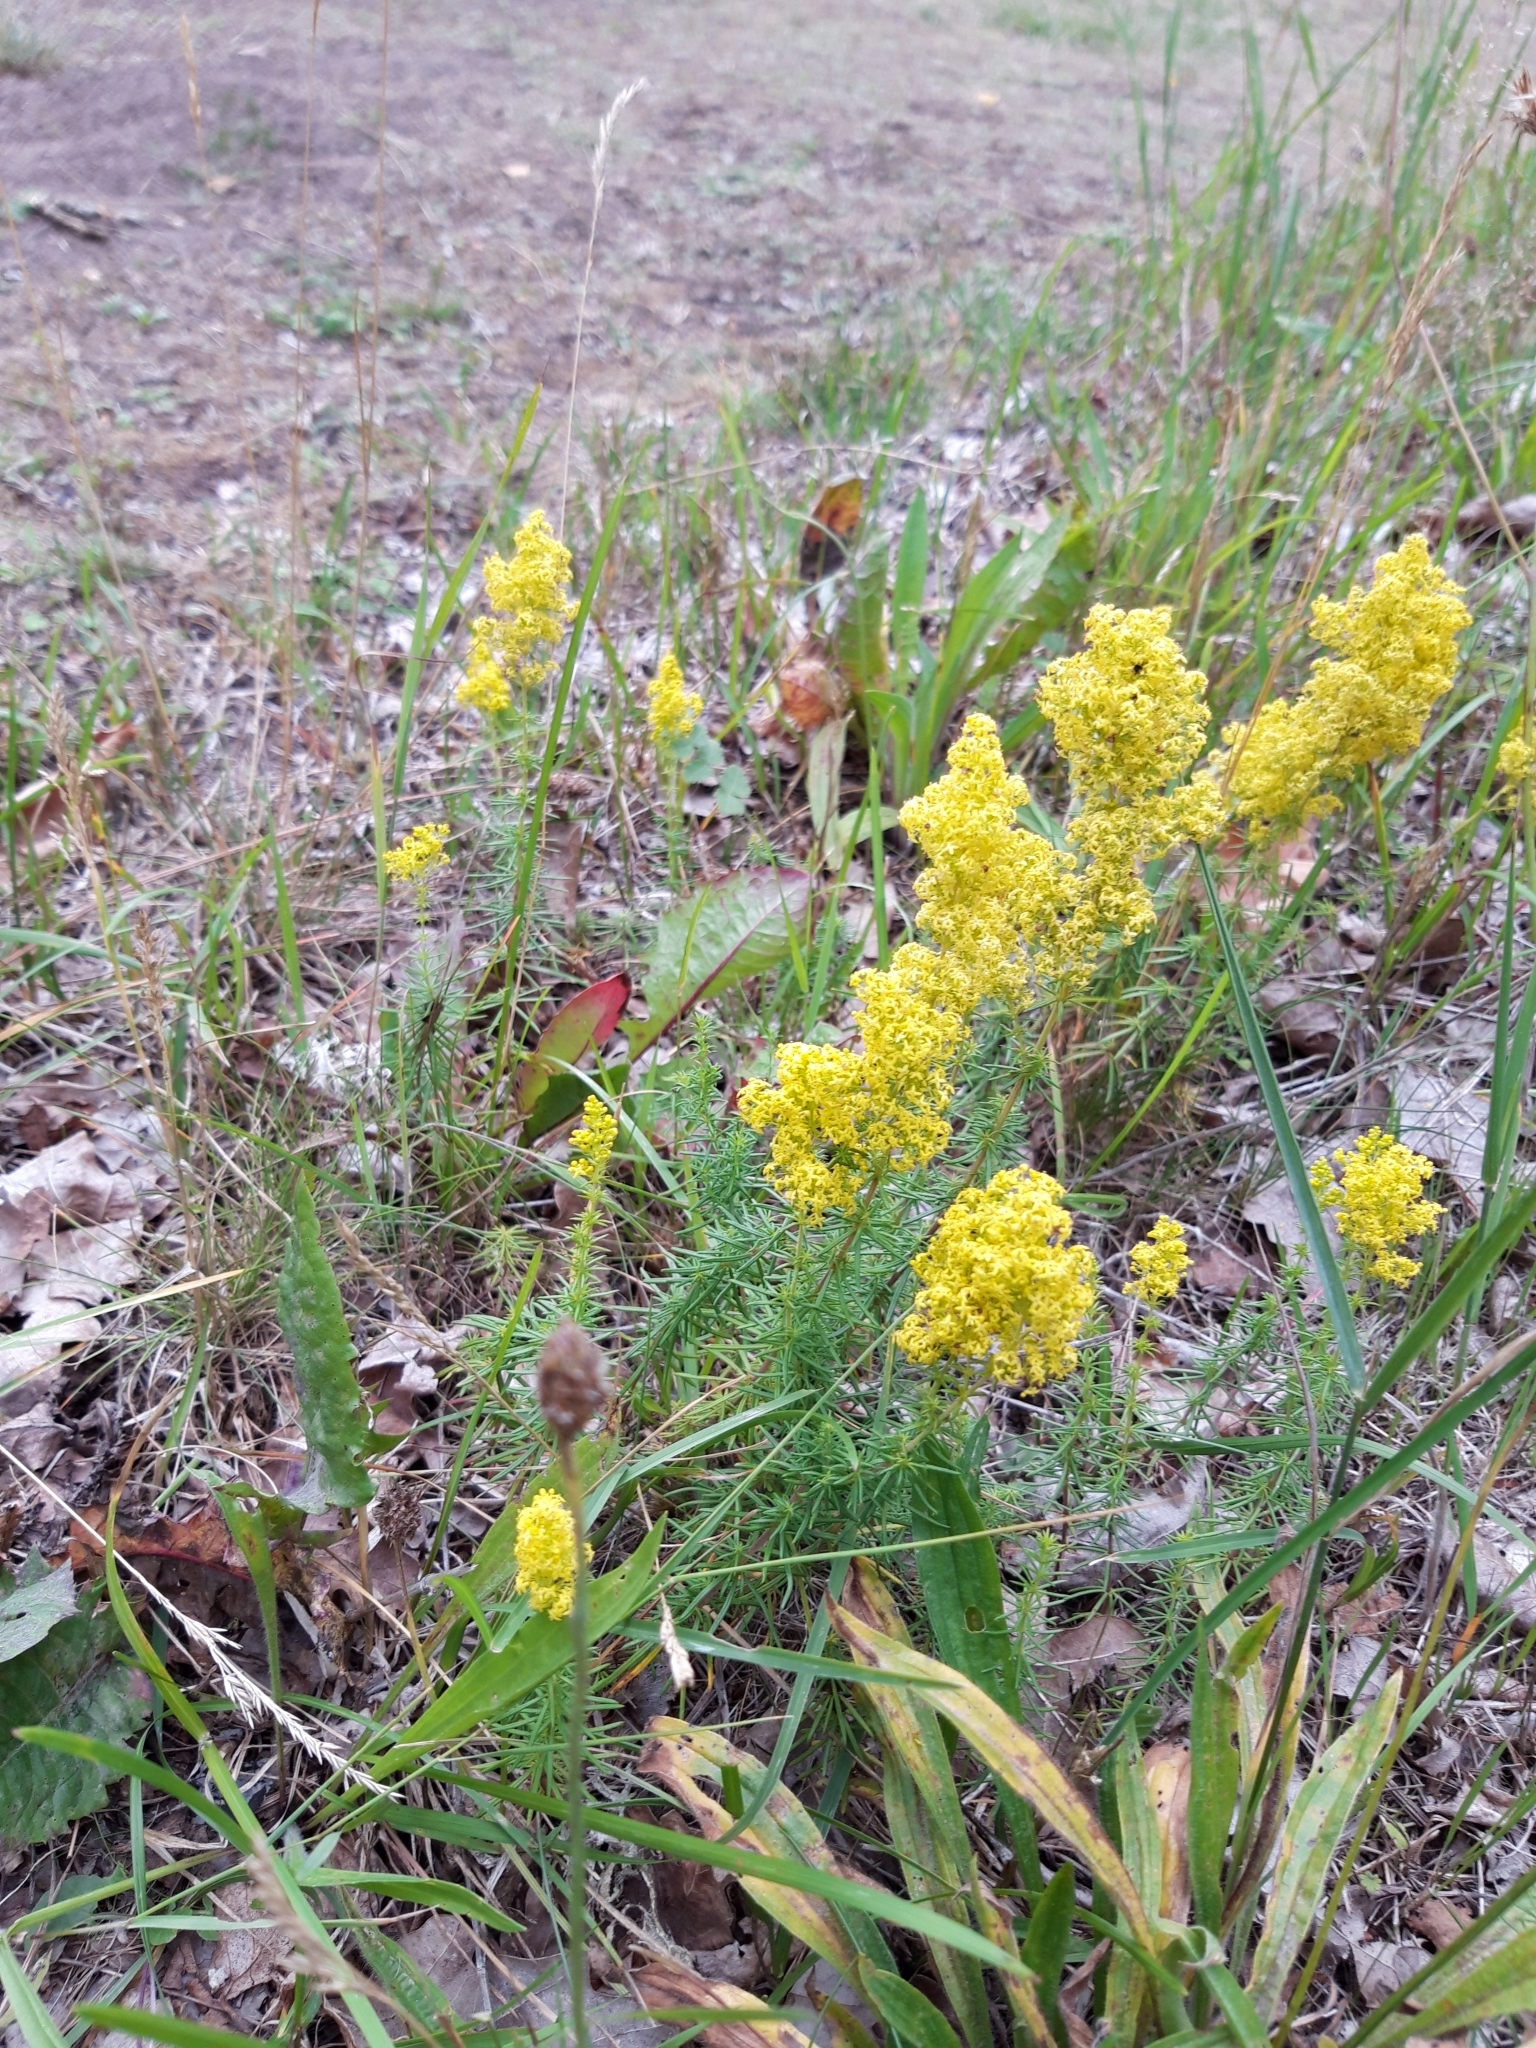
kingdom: Plantae
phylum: Tracheophyta
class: Magnoliopsida
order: Gentianales
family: Rubiaceae
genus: Galium
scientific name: Galium verum
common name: Lady's bedstraw
